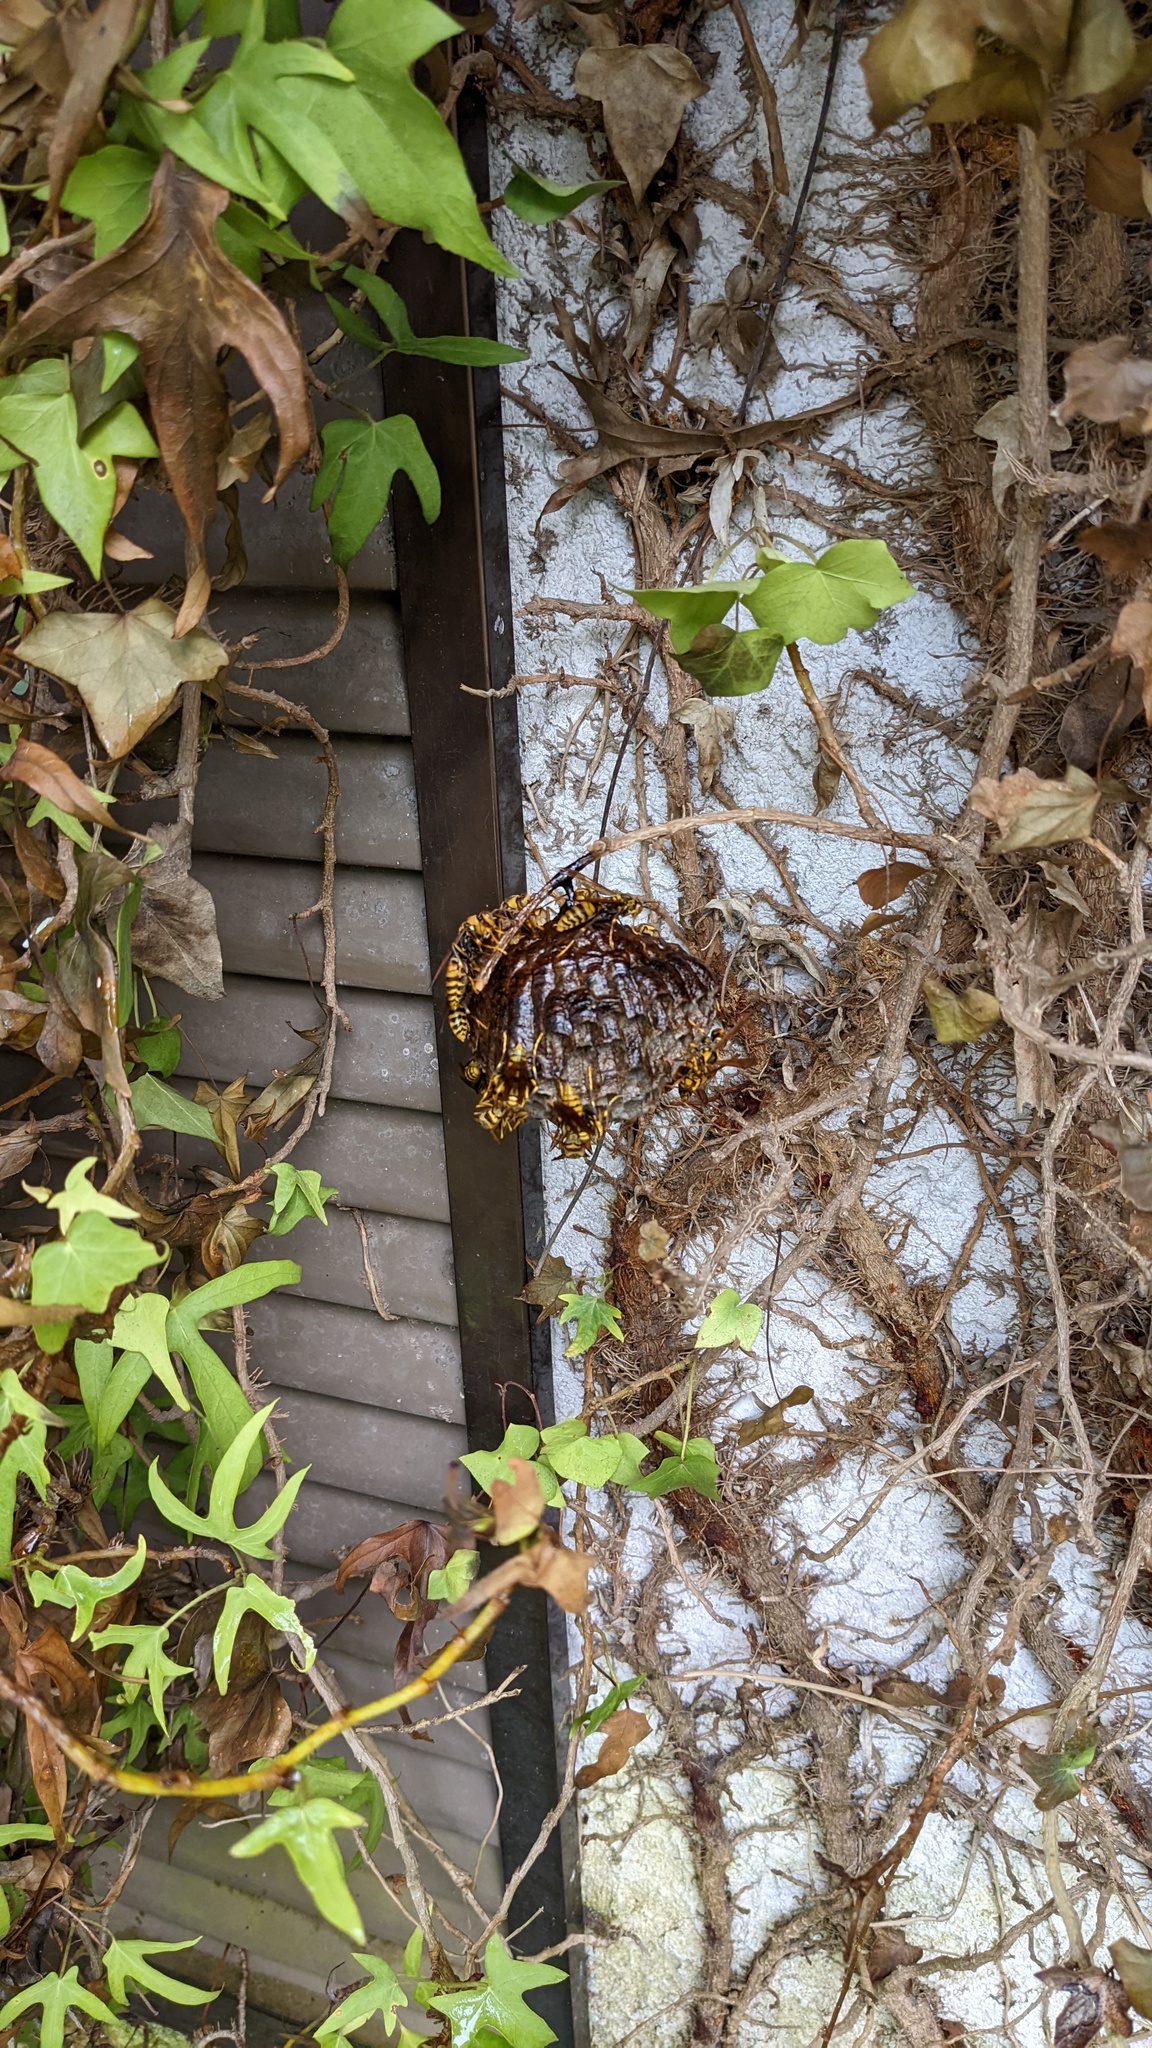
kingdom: Animalia
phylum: Arthropoda
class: Insecta
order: Hymenoptera
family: Eumenidae
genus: Polistes
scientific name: Polistes rothneyi
